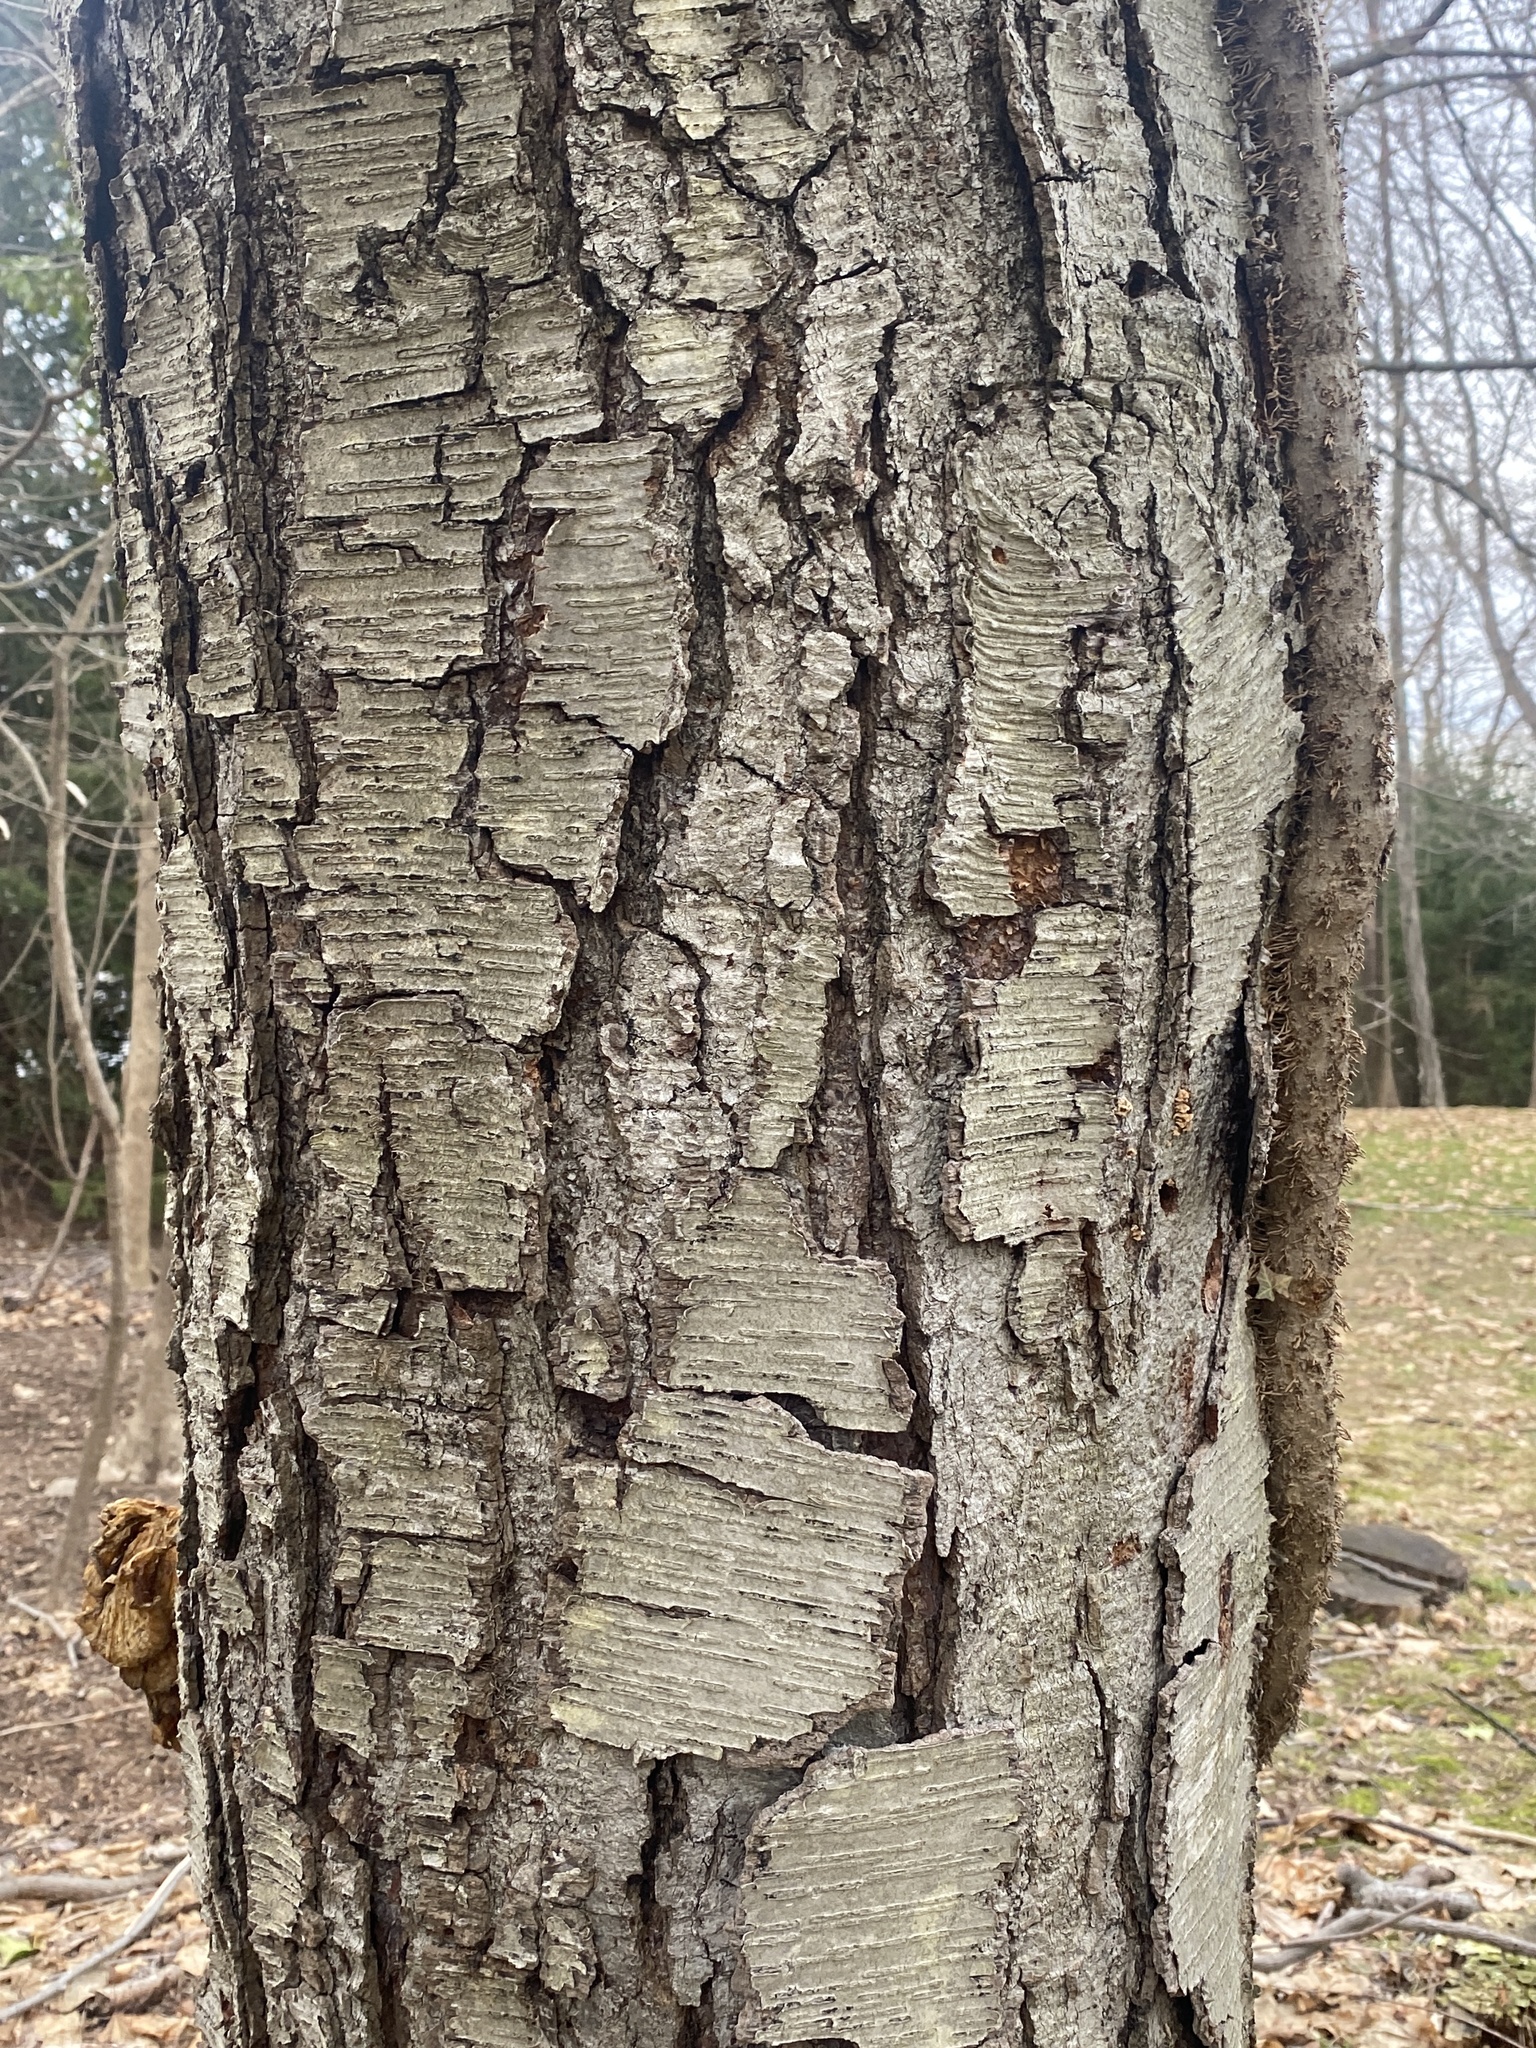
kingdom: Plantae
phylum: Tracheophyta
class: Magnoliopsida
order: Fagales
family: Betulaceae
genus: Betula
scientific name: Betula lenta
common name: Black birch
